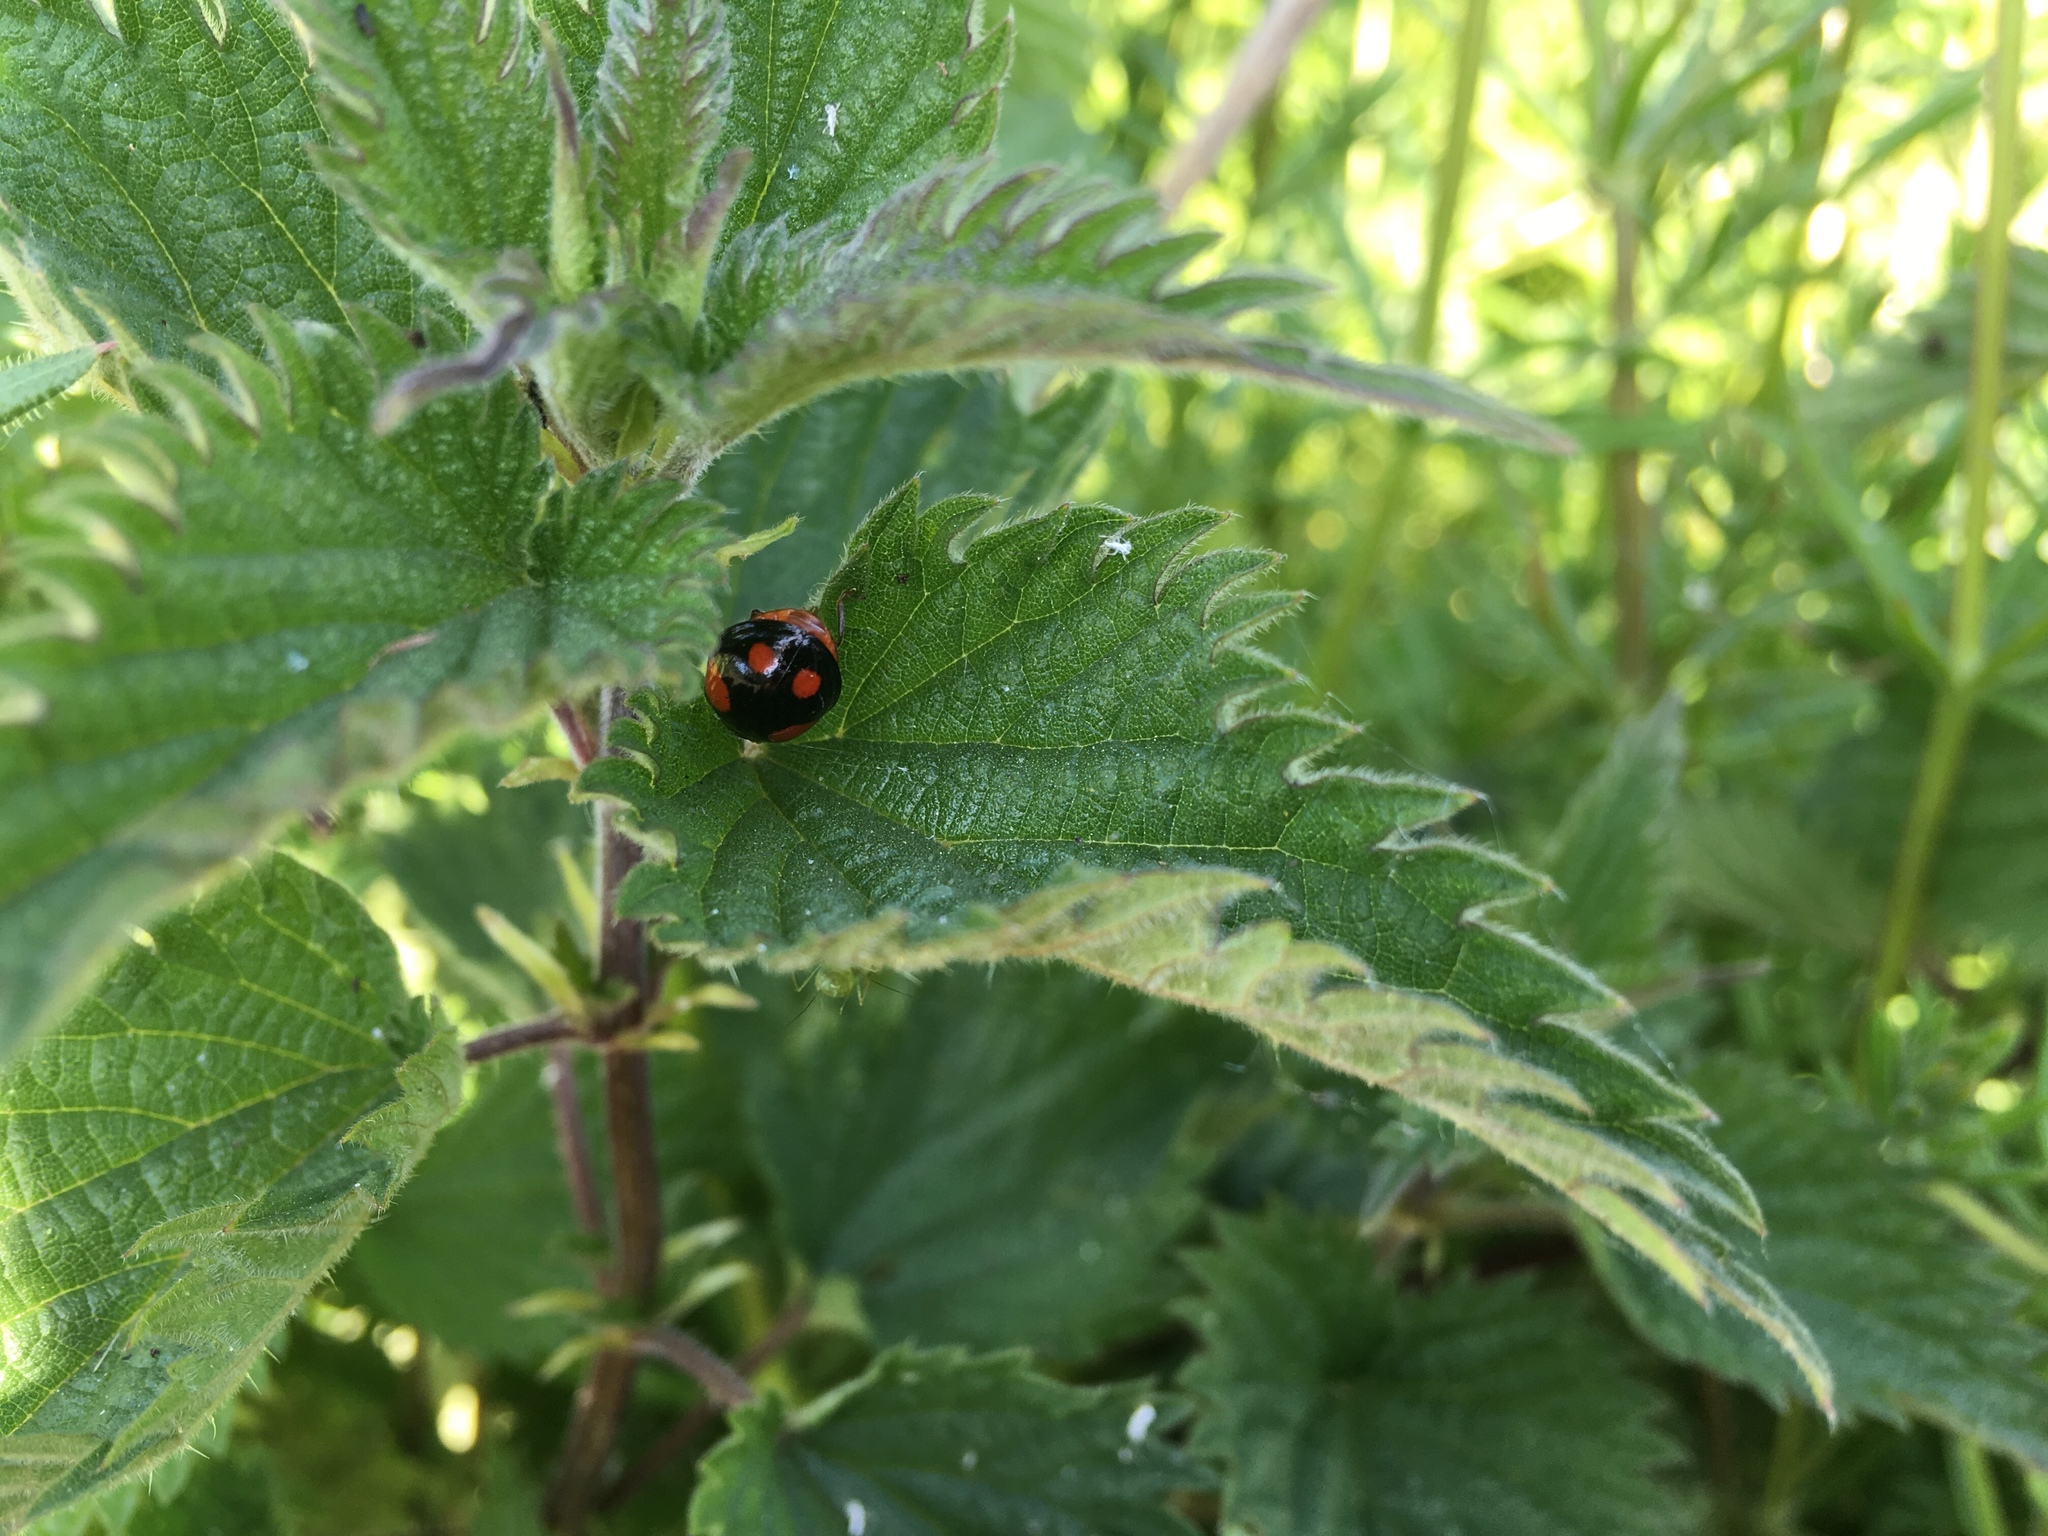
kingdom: Animalia
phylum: Arthropoda
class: Insecta
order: Coleoptera
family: Coccinellidae
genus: Harmonia
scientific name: Harmonia axyridis
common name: Harlequin ladybird
